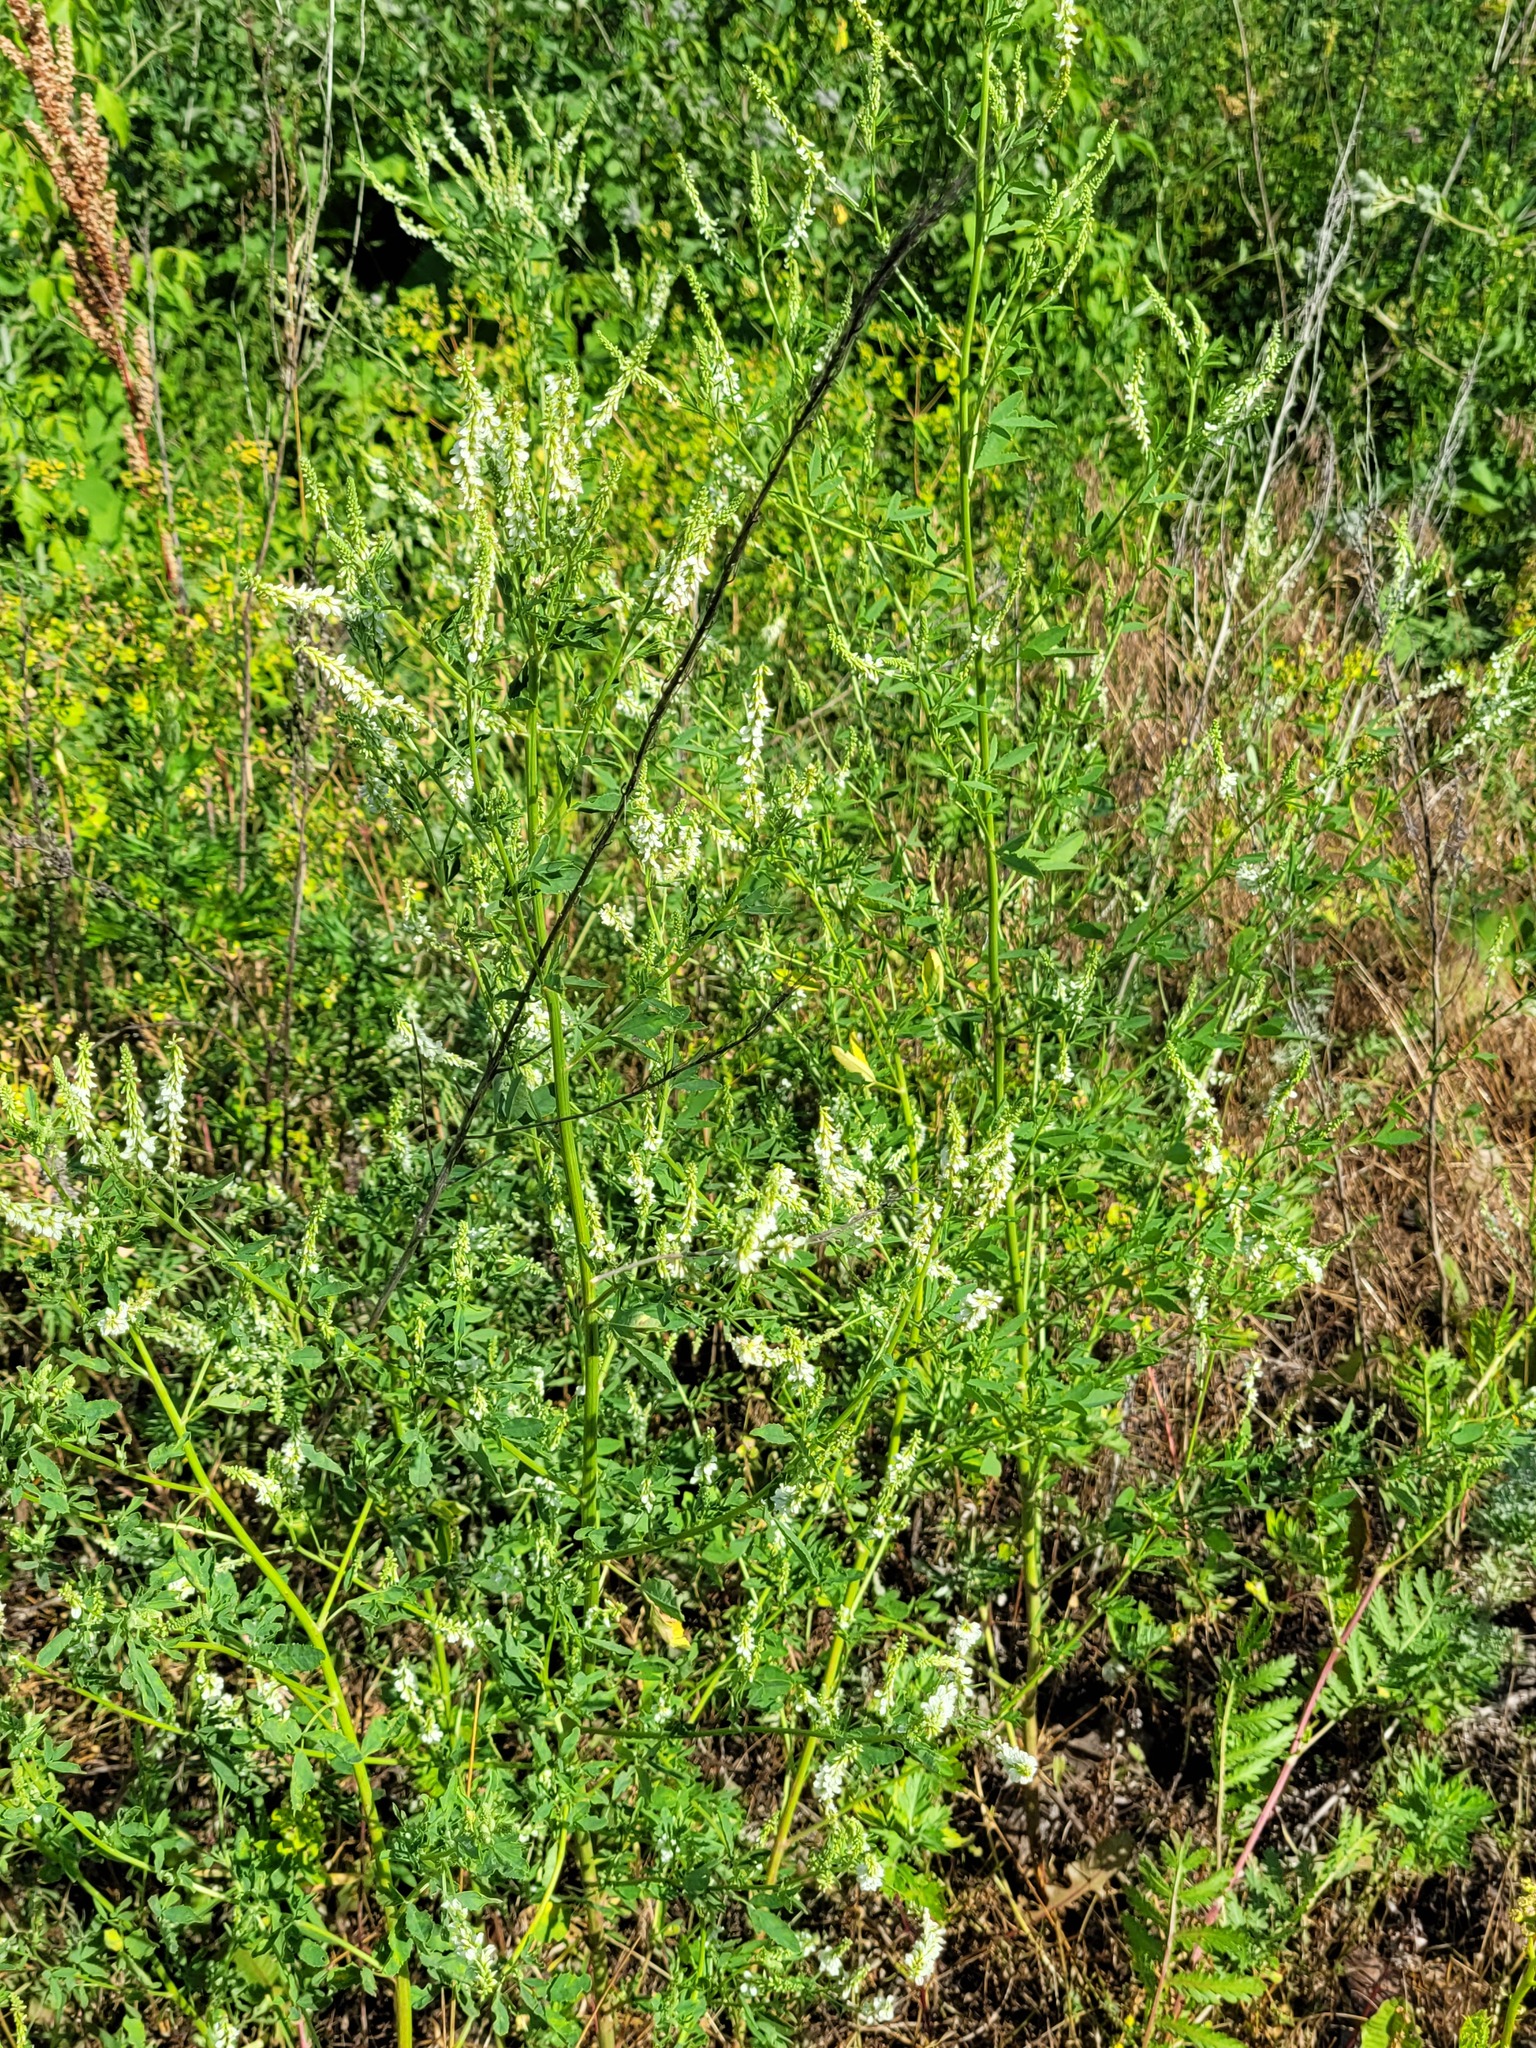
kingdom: Plantae
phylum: Tracheophyta
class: Magnoliopsida
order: Fabales
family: Fabaceae
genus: Melilotus
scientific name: Melilotus albus
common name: White melilot
